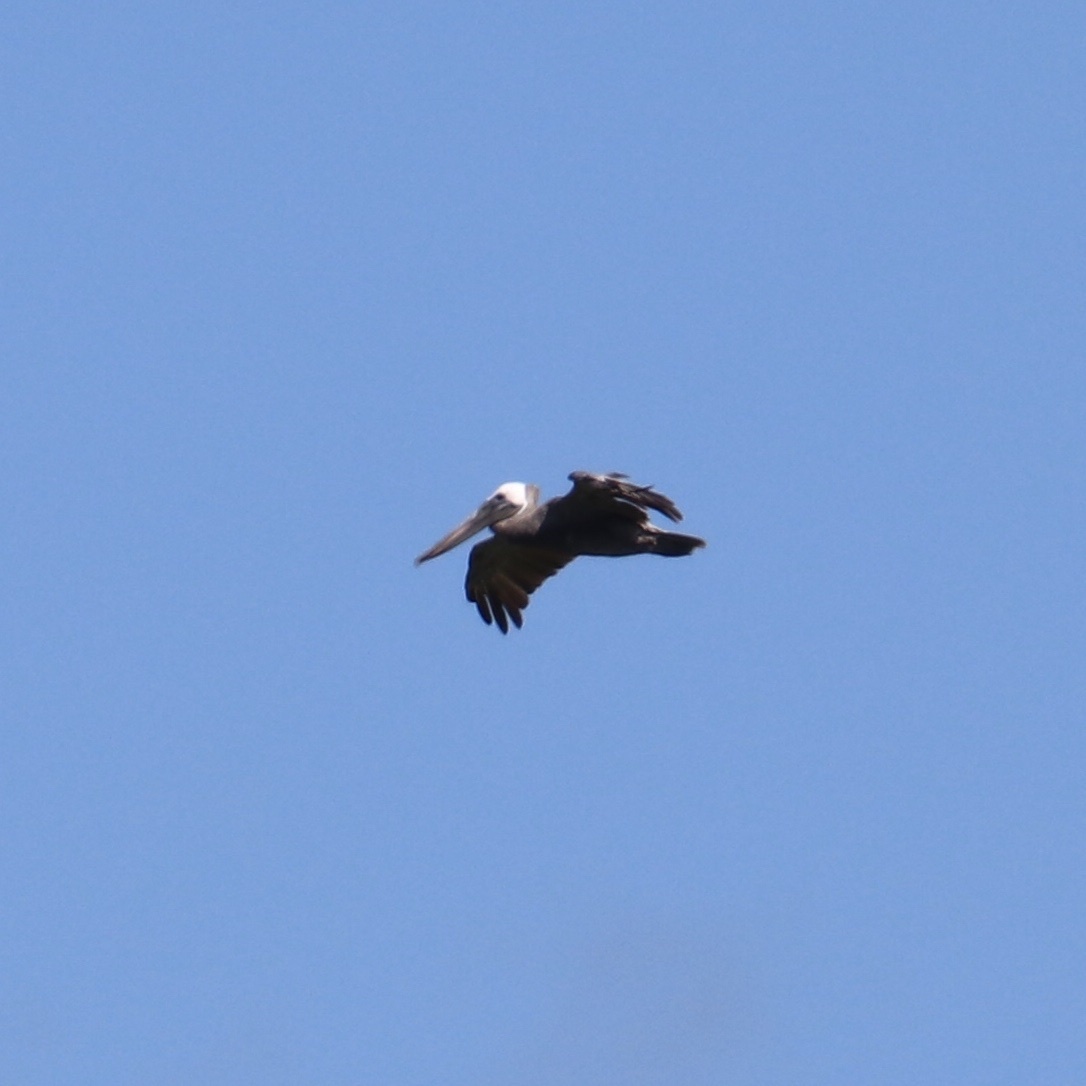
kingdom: Animalia
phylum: Chordata
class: Aves
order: Pelecaniformes
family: Pelecanidae
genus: Pelecanus
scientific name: Pelecanus occidentalis
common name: Brown pelican
